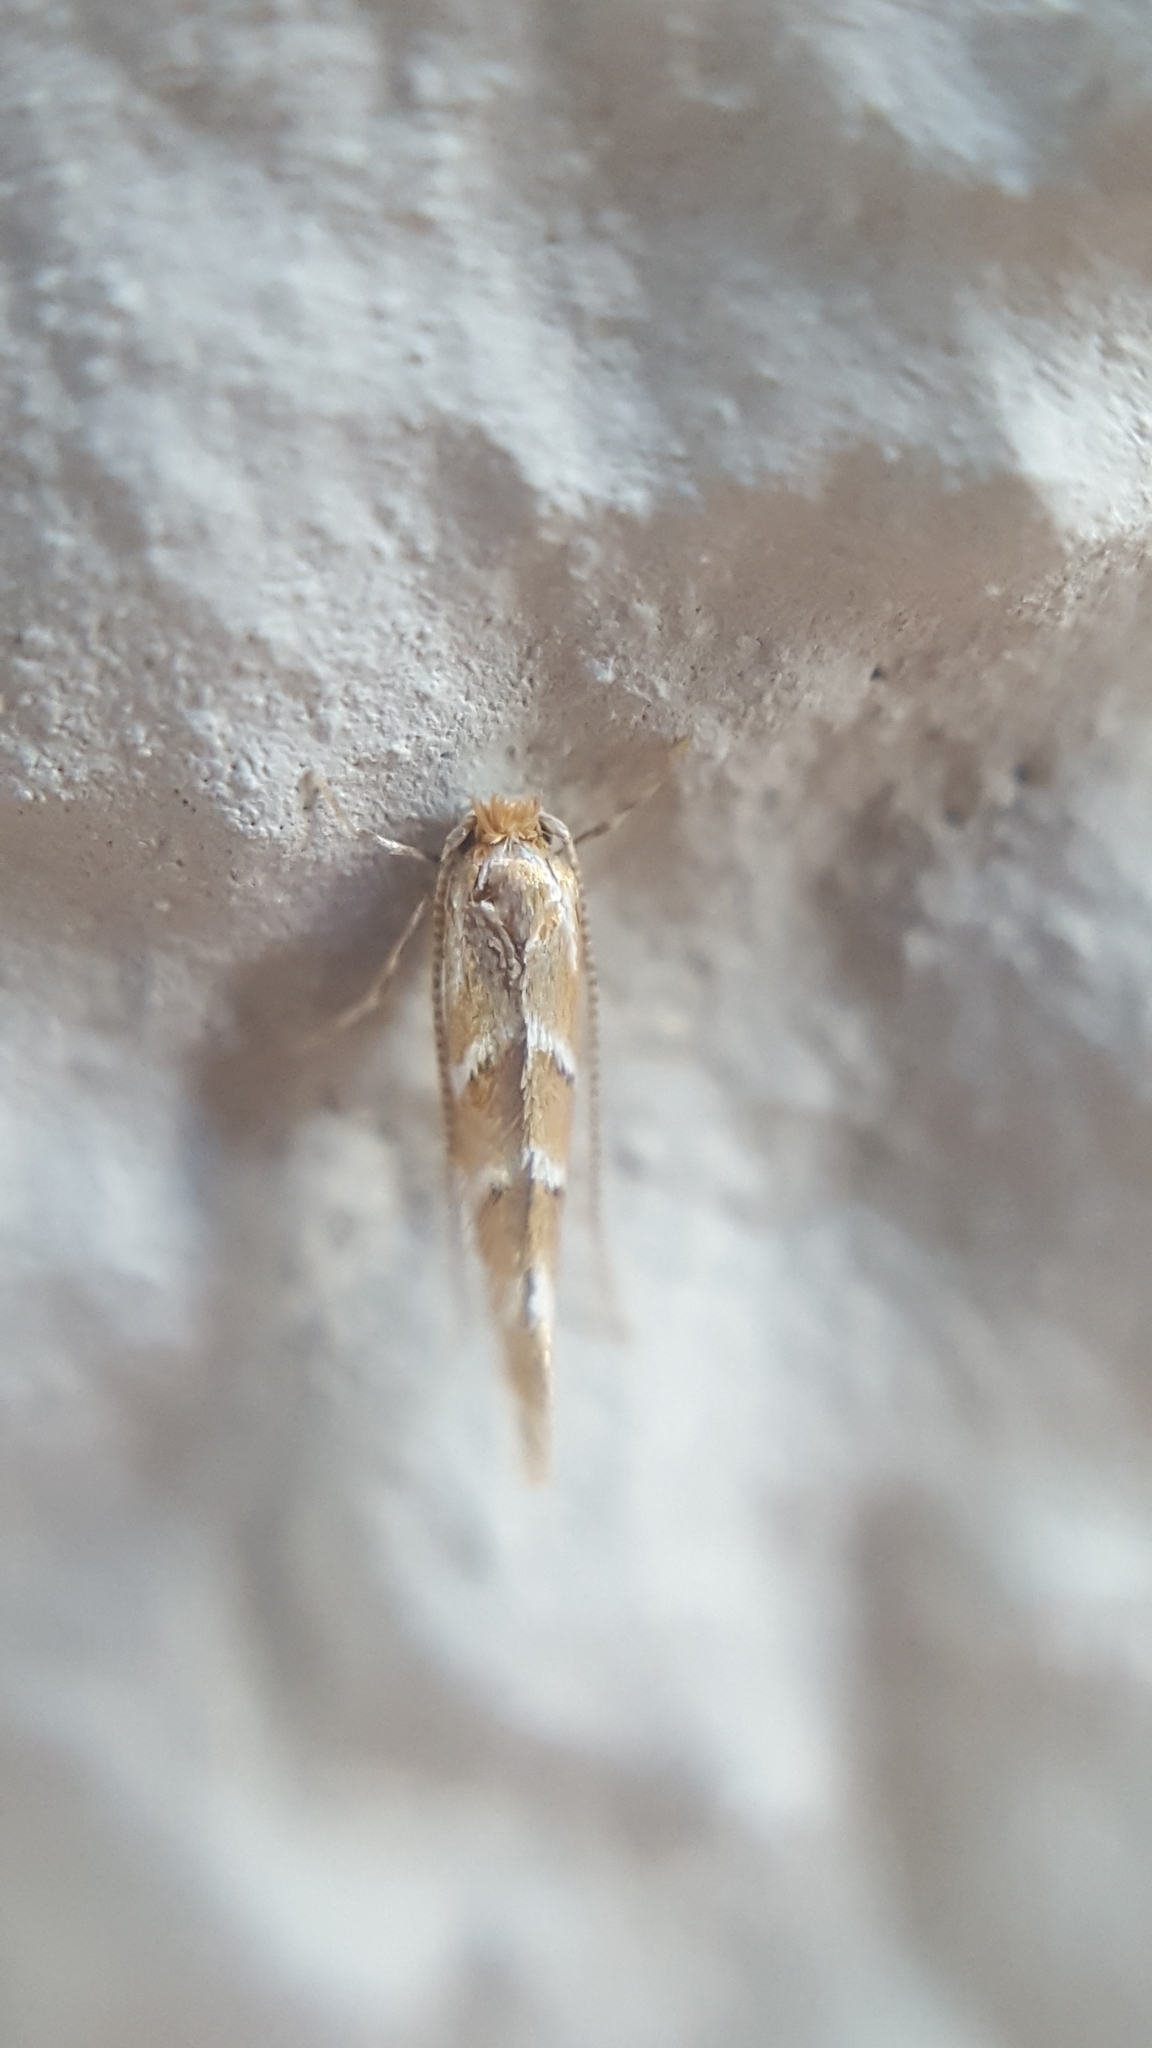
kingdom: Animalia
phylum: Arthropoda
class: Insecta
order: Lepidoptera
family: Gracillariidae
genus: Cameraria
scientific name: Cameraria ohridella
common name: Horse-chestnut leaf-miner
